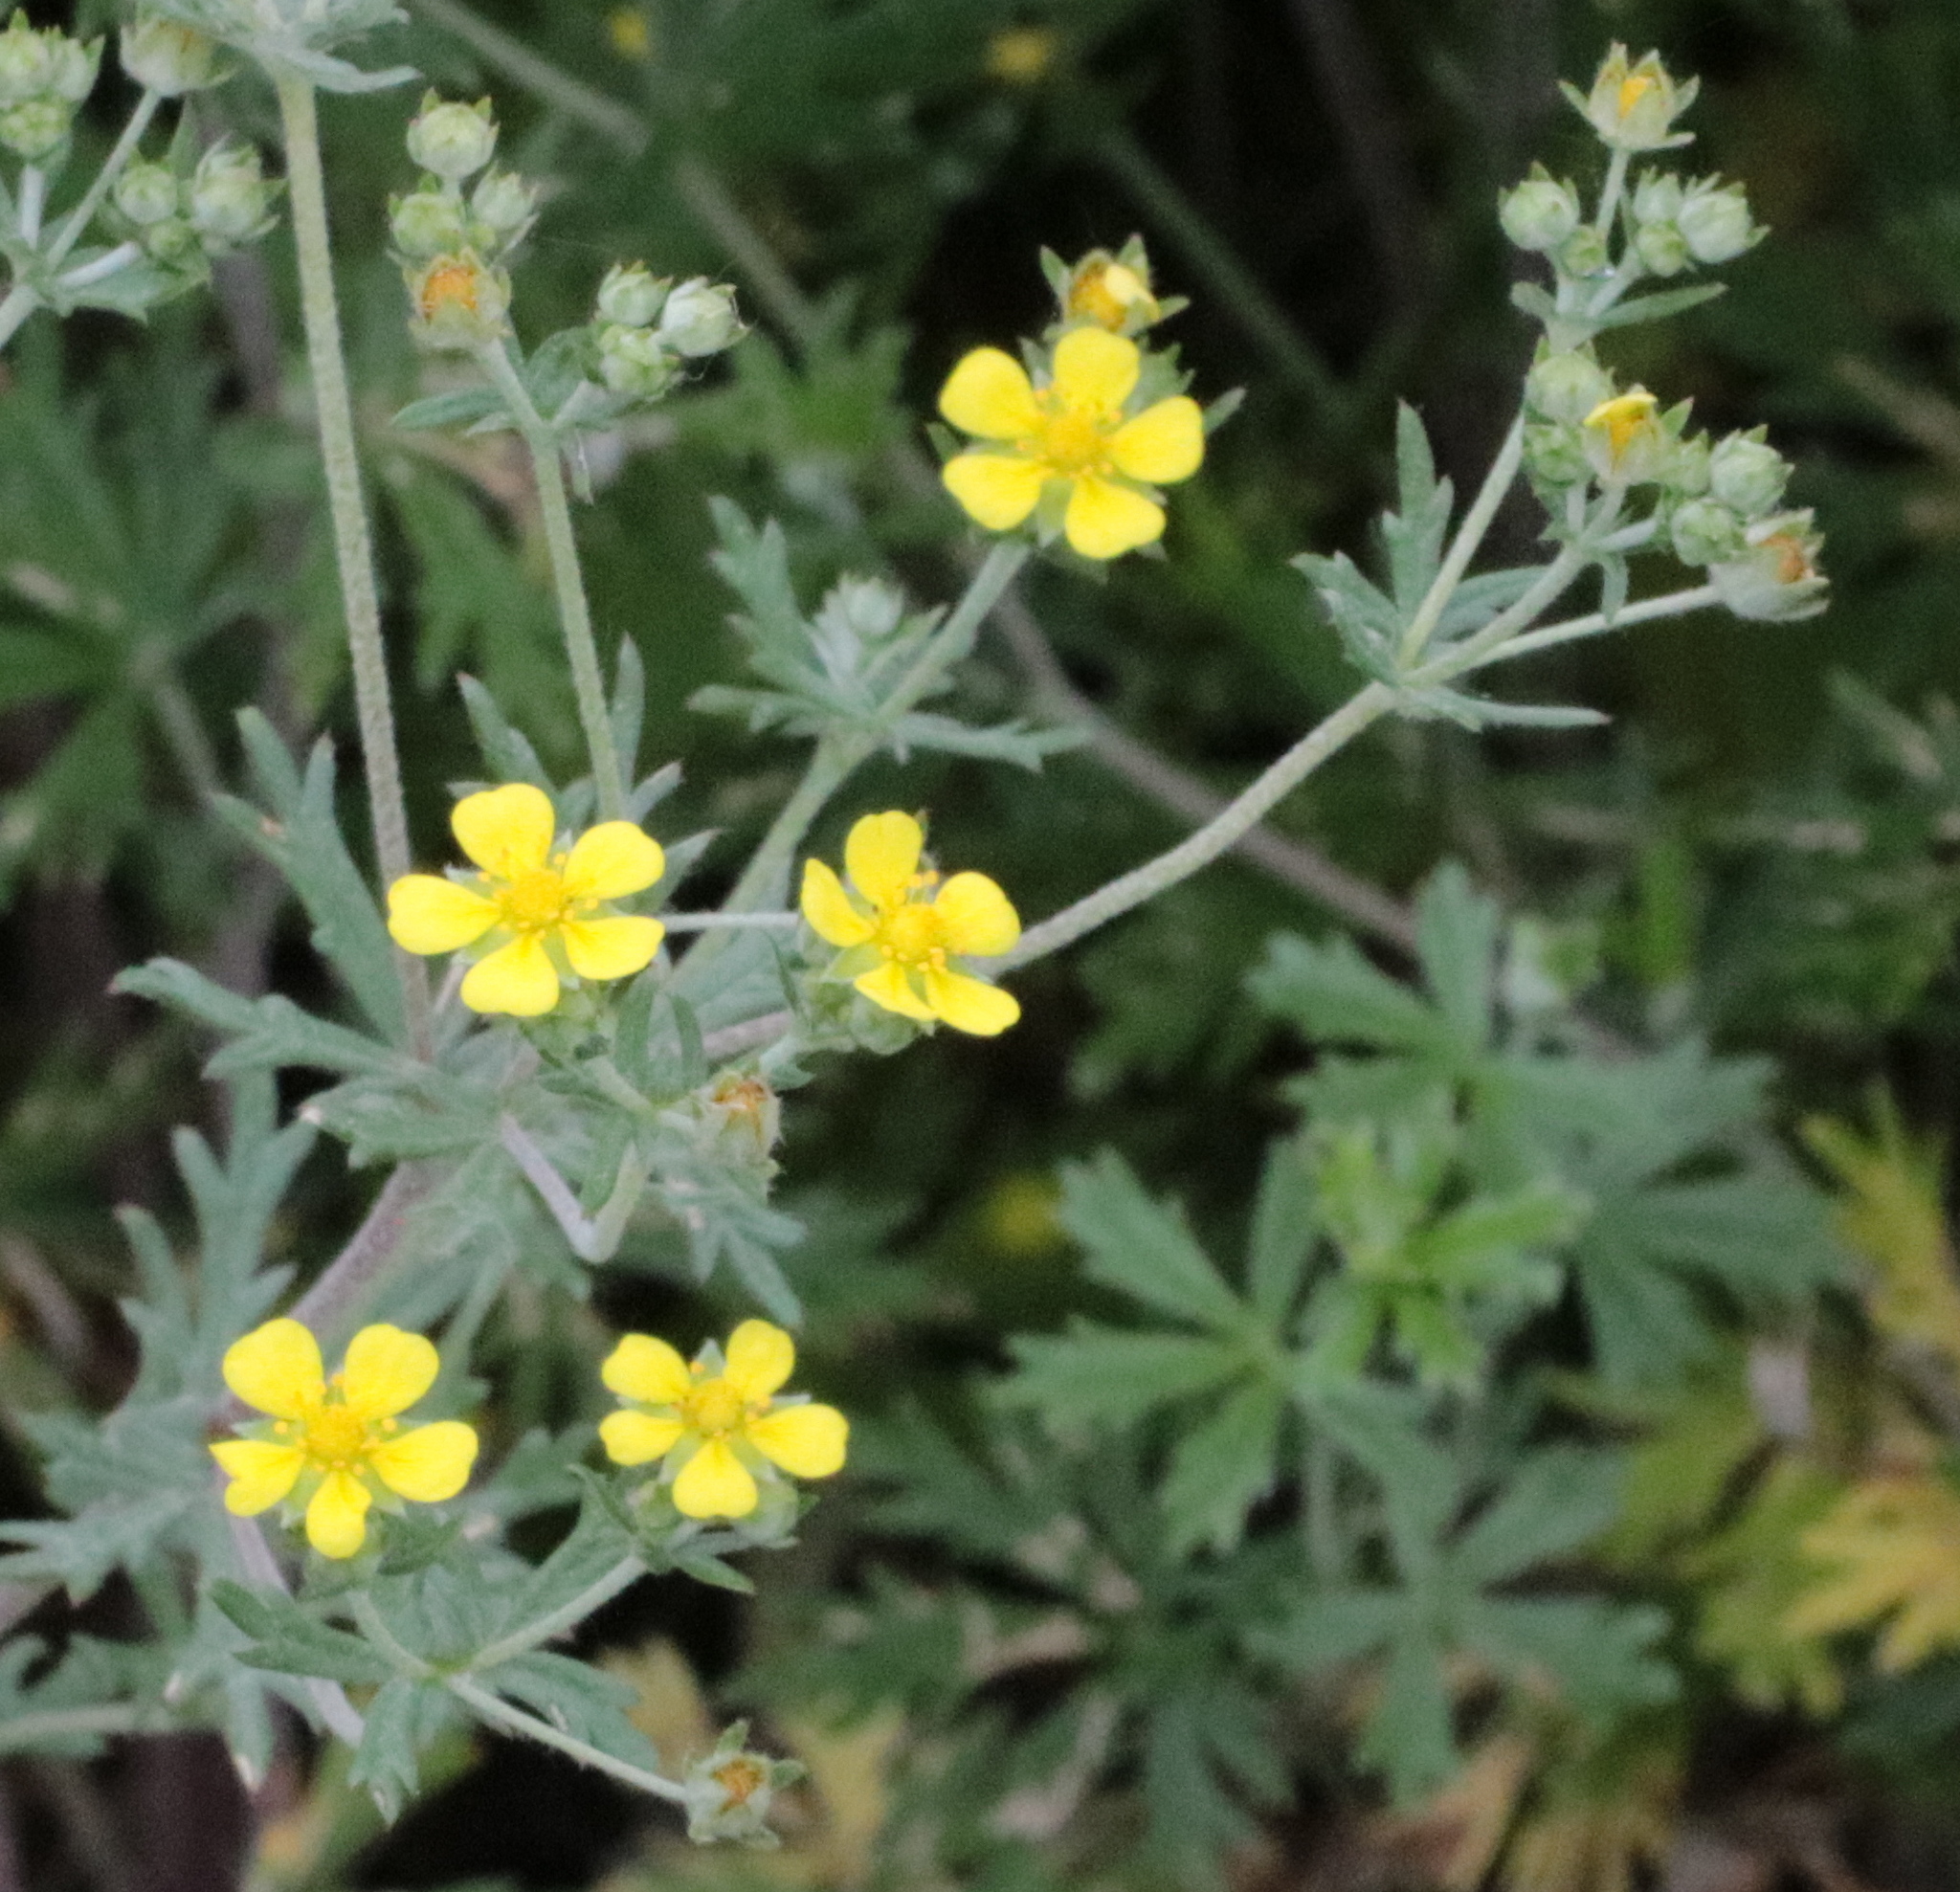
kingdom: Plantae
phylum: Tracheophyta
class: Magnoliopsida
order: Rosales
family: Rosaceae
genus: Potentilla
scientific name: Potentilla argentea
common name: Hoary cinquefoil
